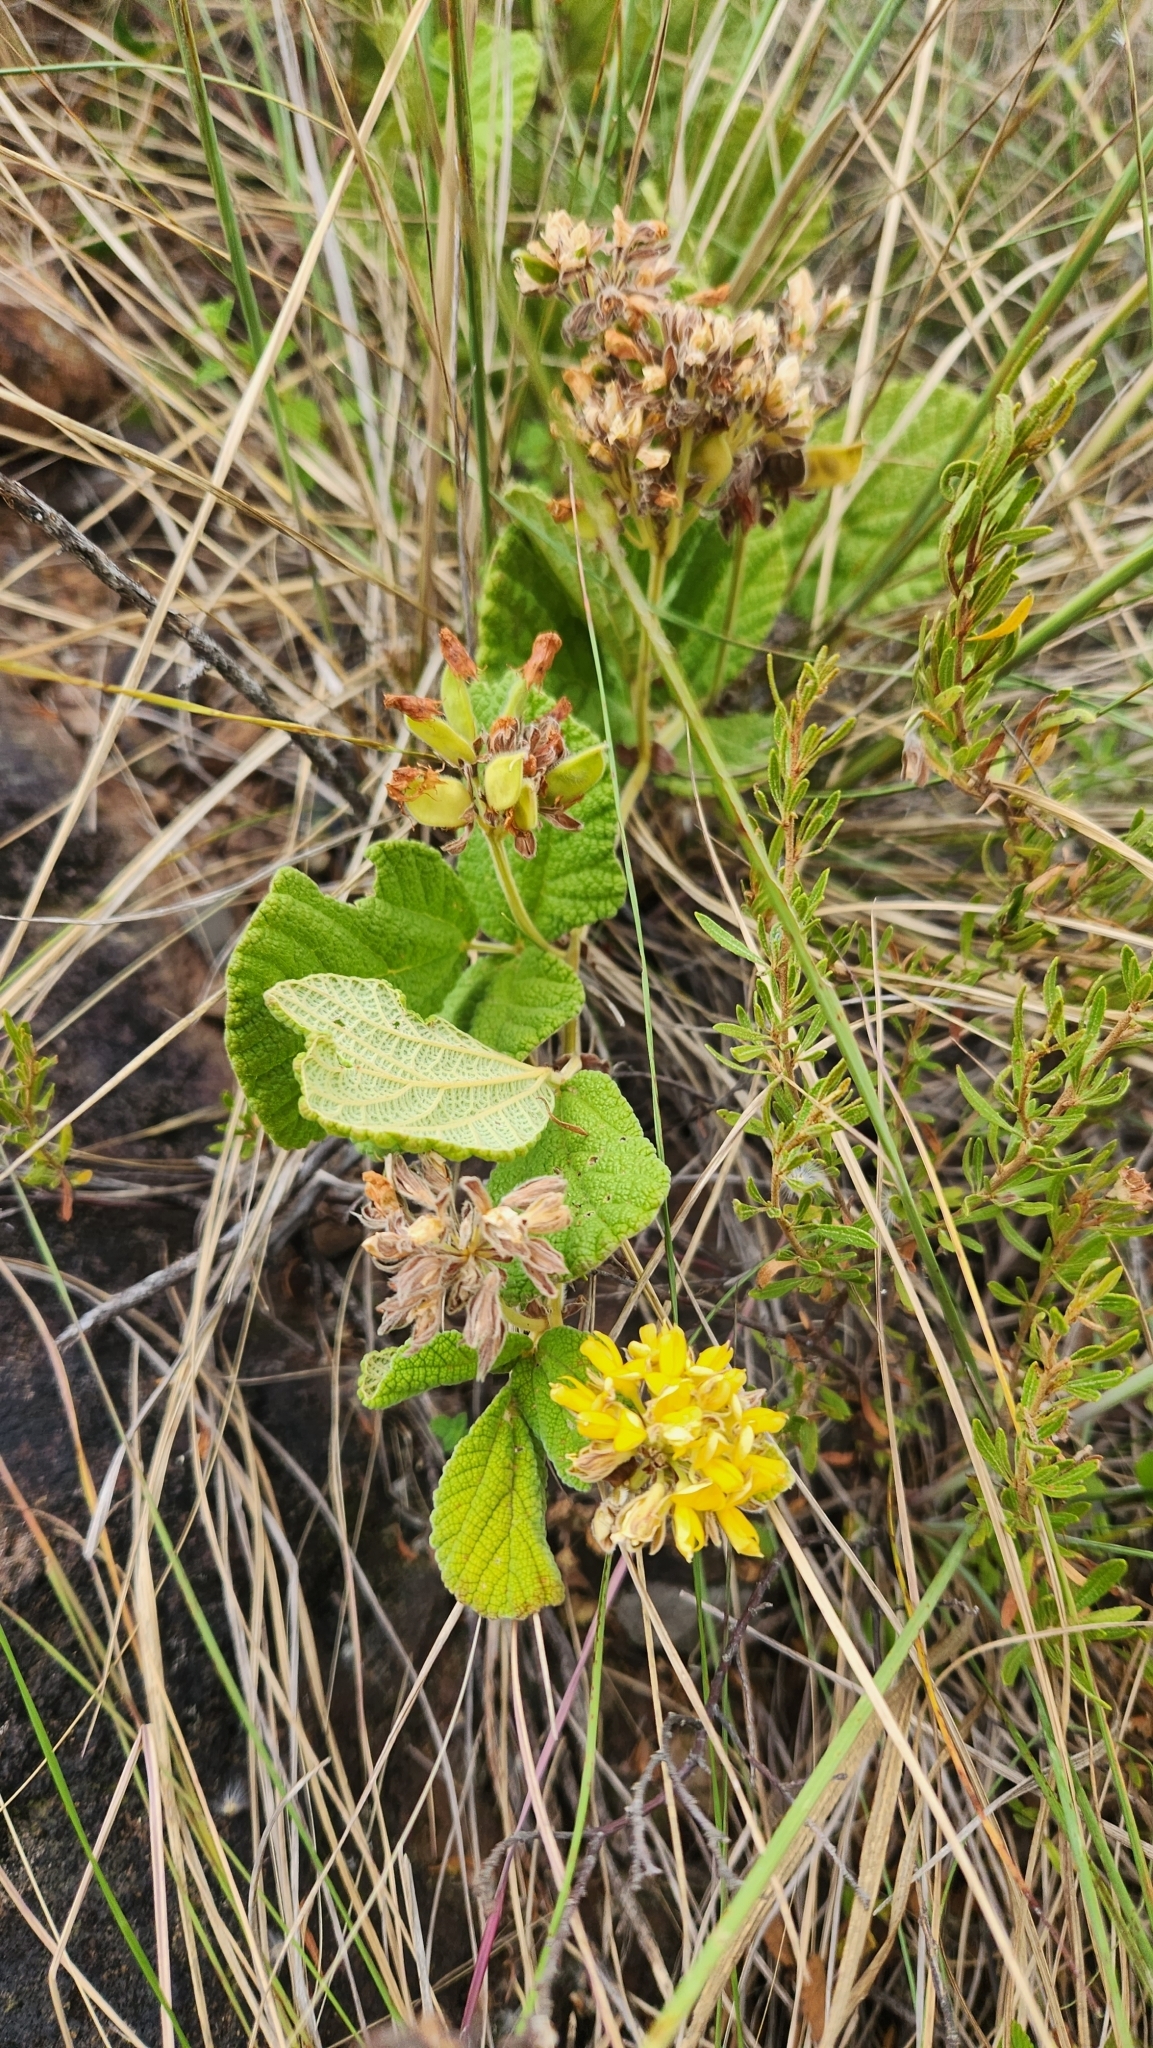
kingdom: Plantae
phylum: Tracheophyta
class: Magnoliopsida
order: Fabales
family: Fabaceae
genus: Rhynchosia
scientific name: Rhynchosia corylifolia
